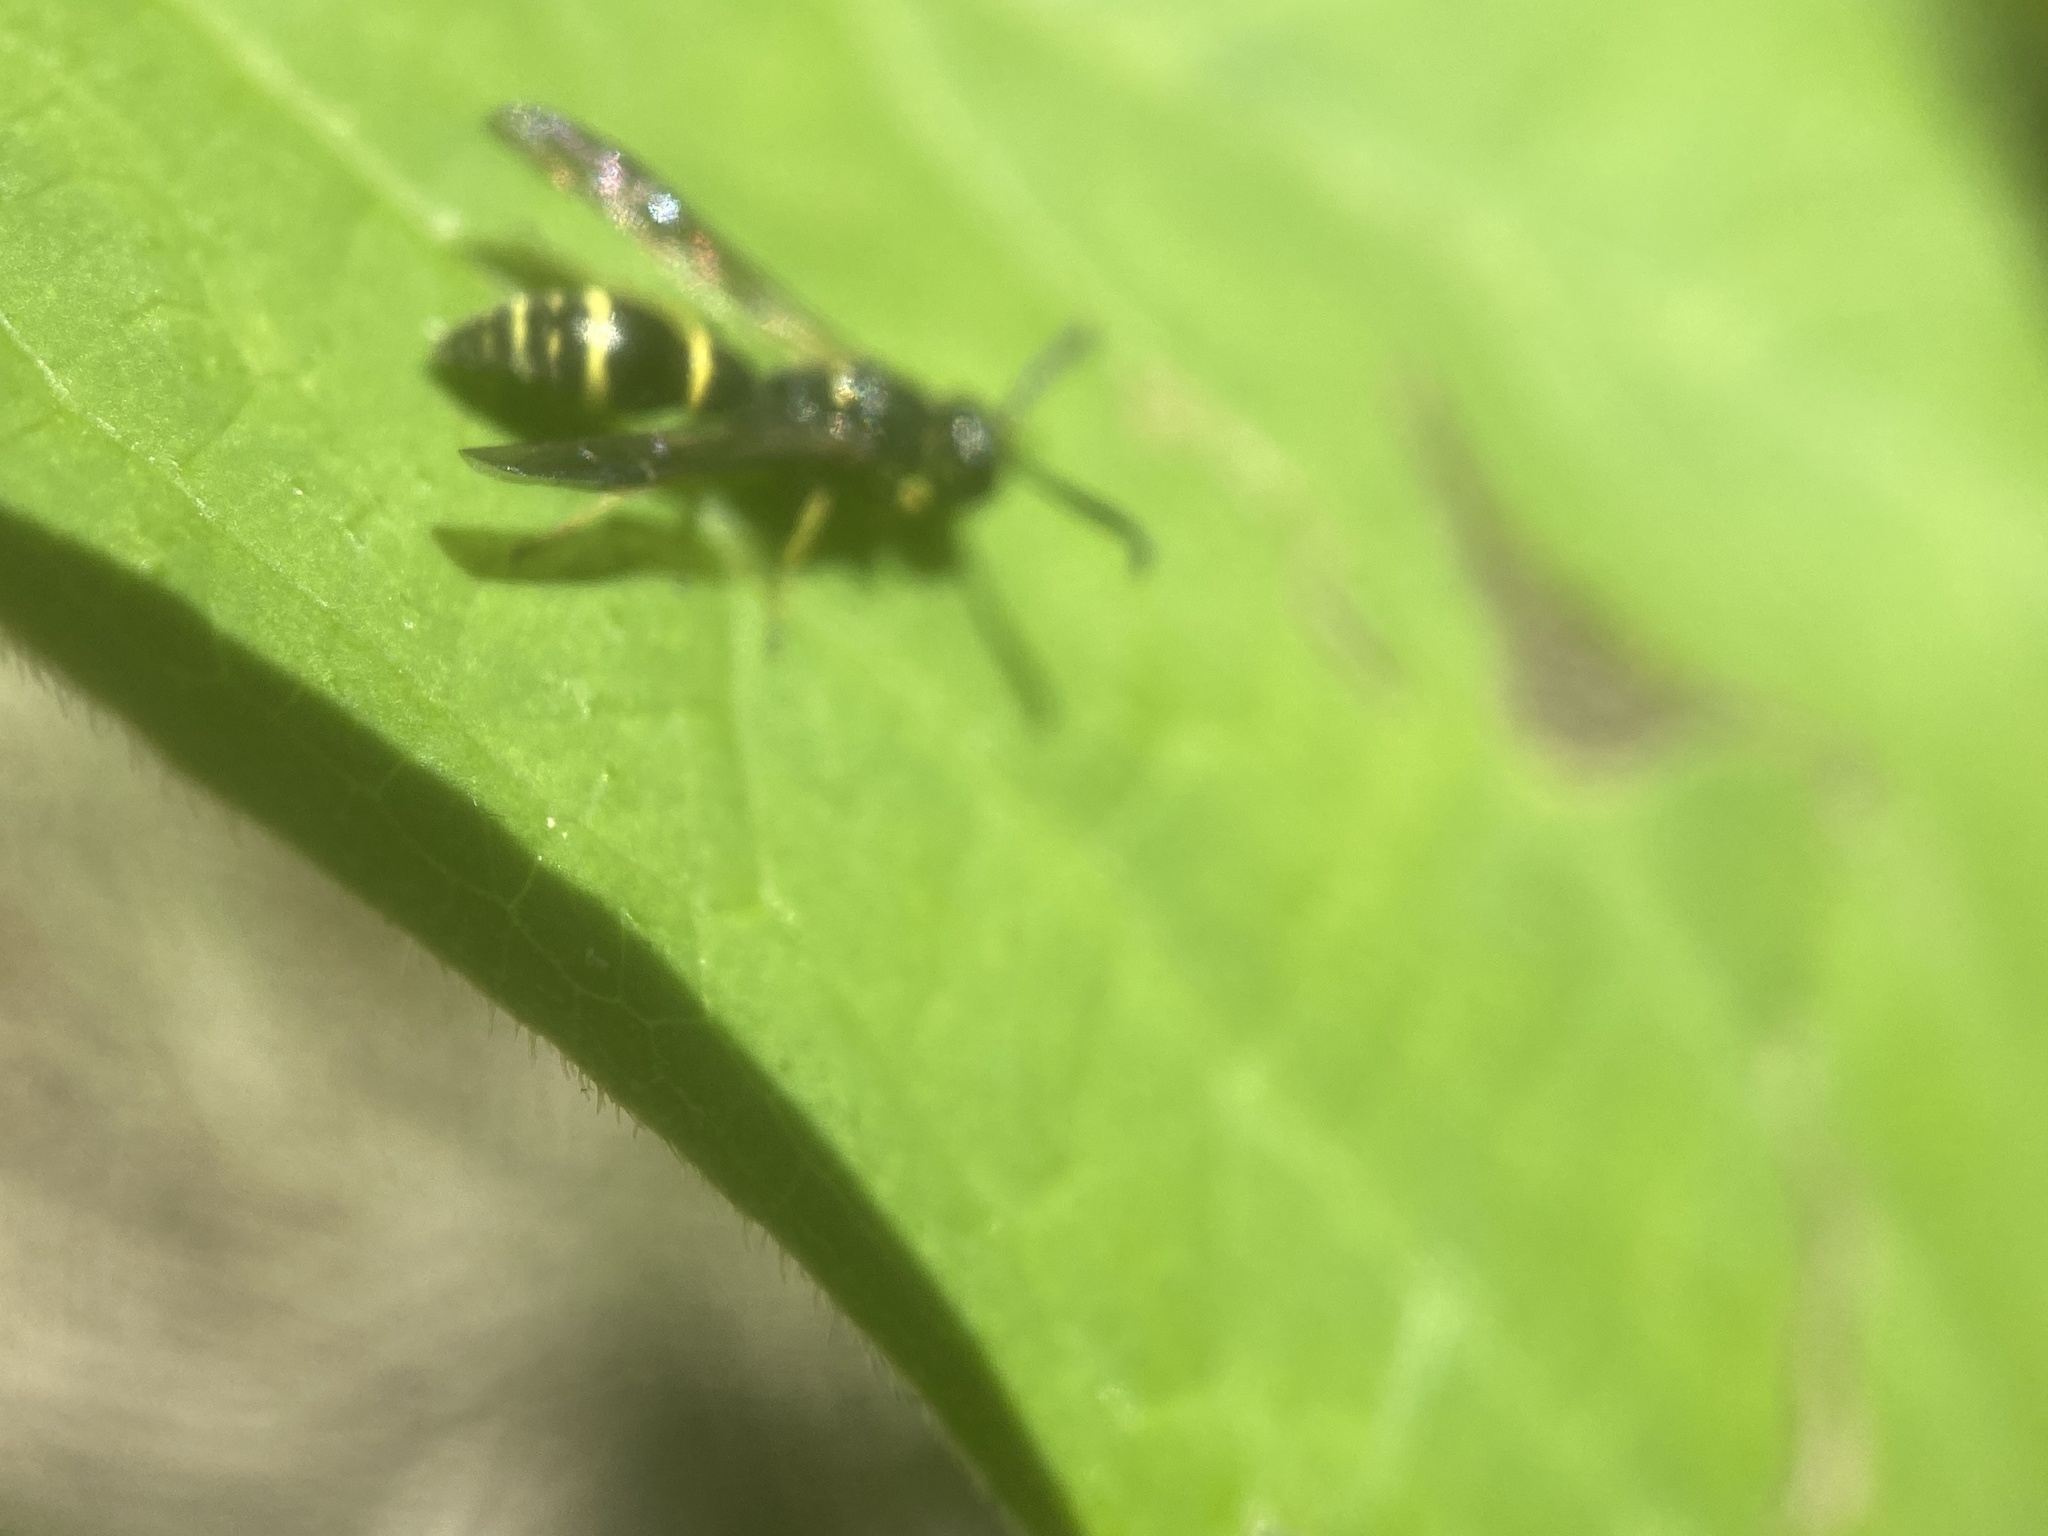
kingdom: Animalia
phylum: Arthropoda
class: Insecta
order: Hymenoptera
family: Eumenidae
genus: Symmorphus
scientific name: Symmorphus
